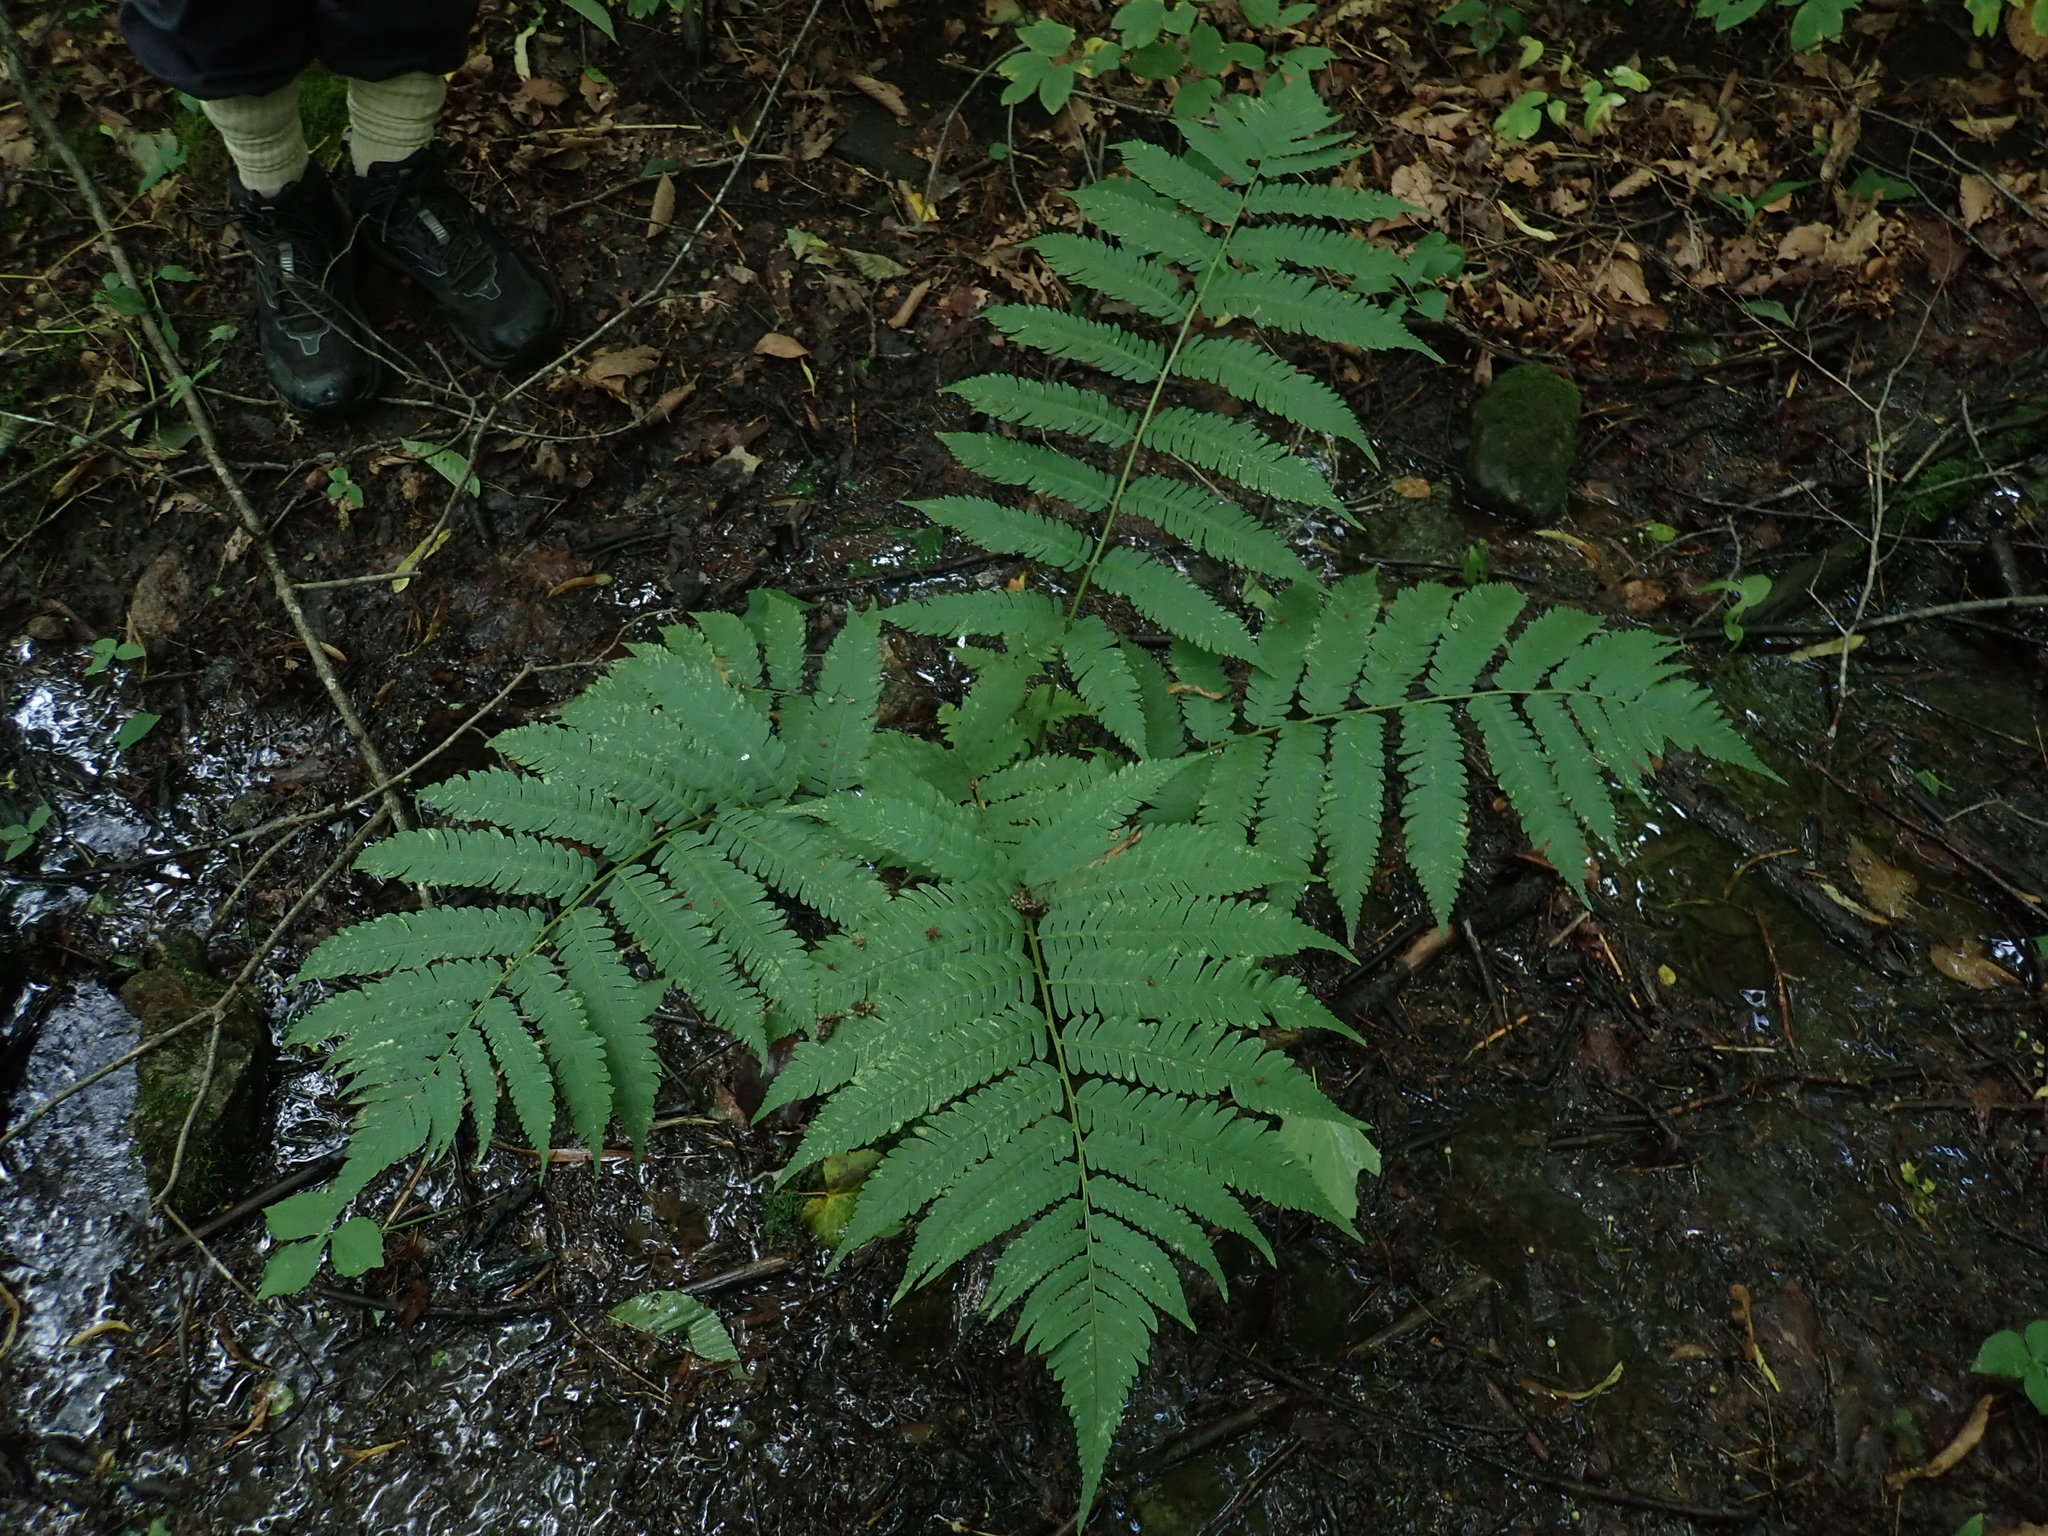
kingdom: Plantae
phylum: Tracheophyta
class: Polypodiopsida
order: Polypodiales
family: Dryopteridaceae
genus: Dryopteris
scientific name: Dryopteris goldieana
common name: Goldie's fern
